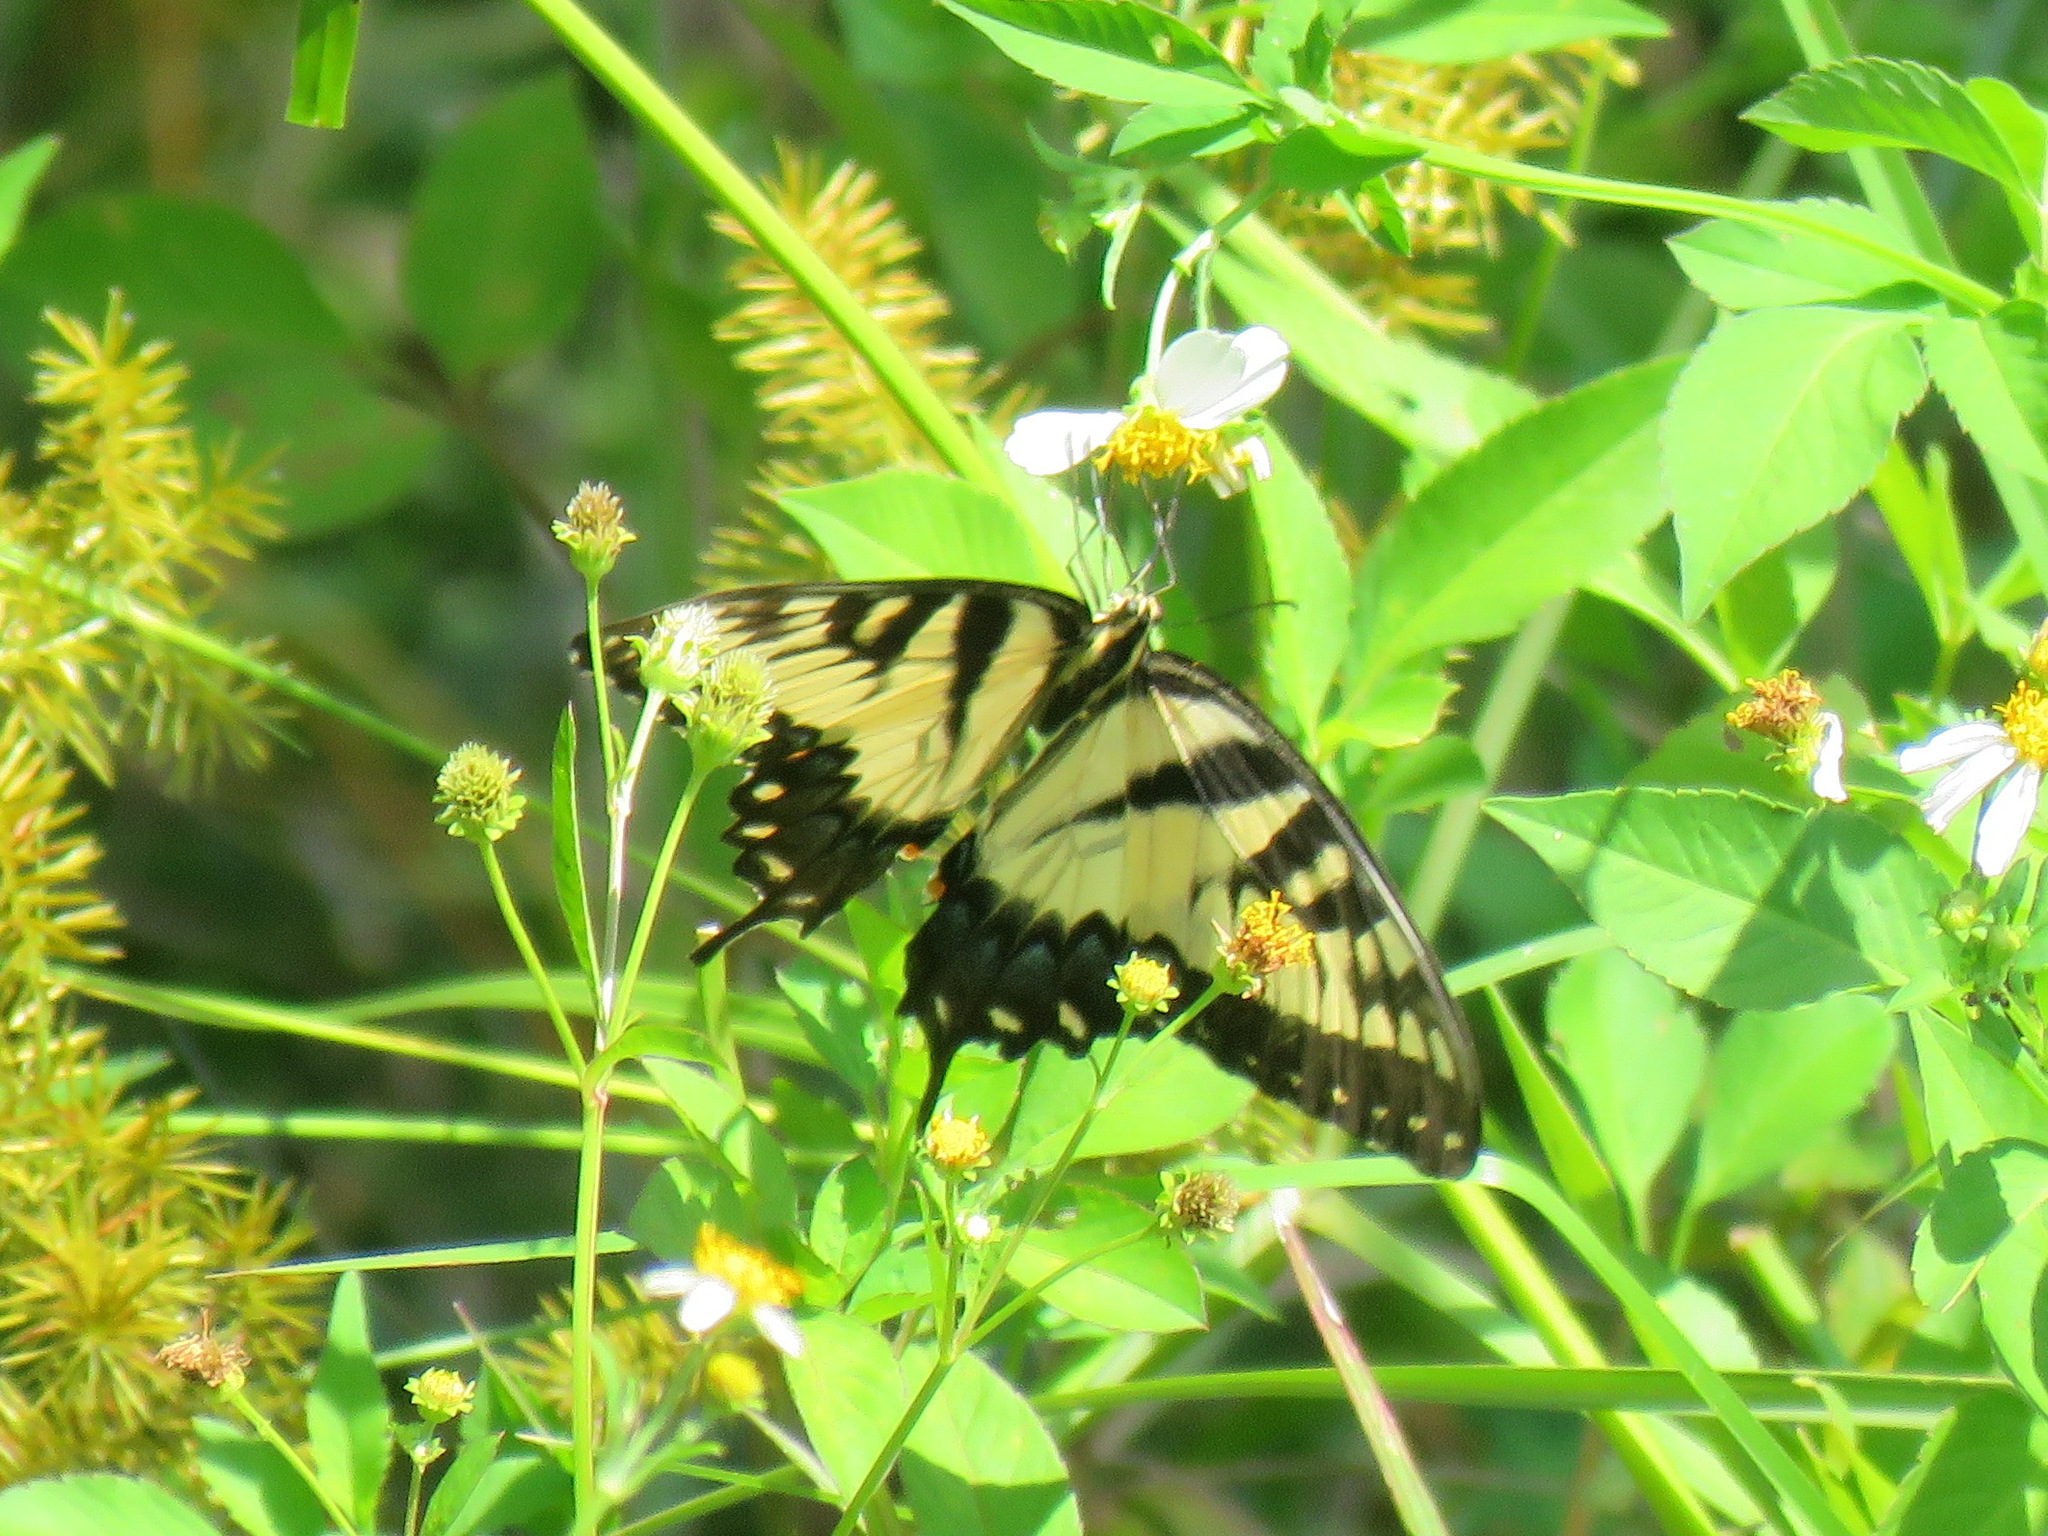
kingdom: Animalia
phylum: Arthropoda
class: Insecta
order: Lepidoptera
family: Papilionidae
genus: Papilio
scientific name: Papilio glaucus
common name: Tiger swallowtail
